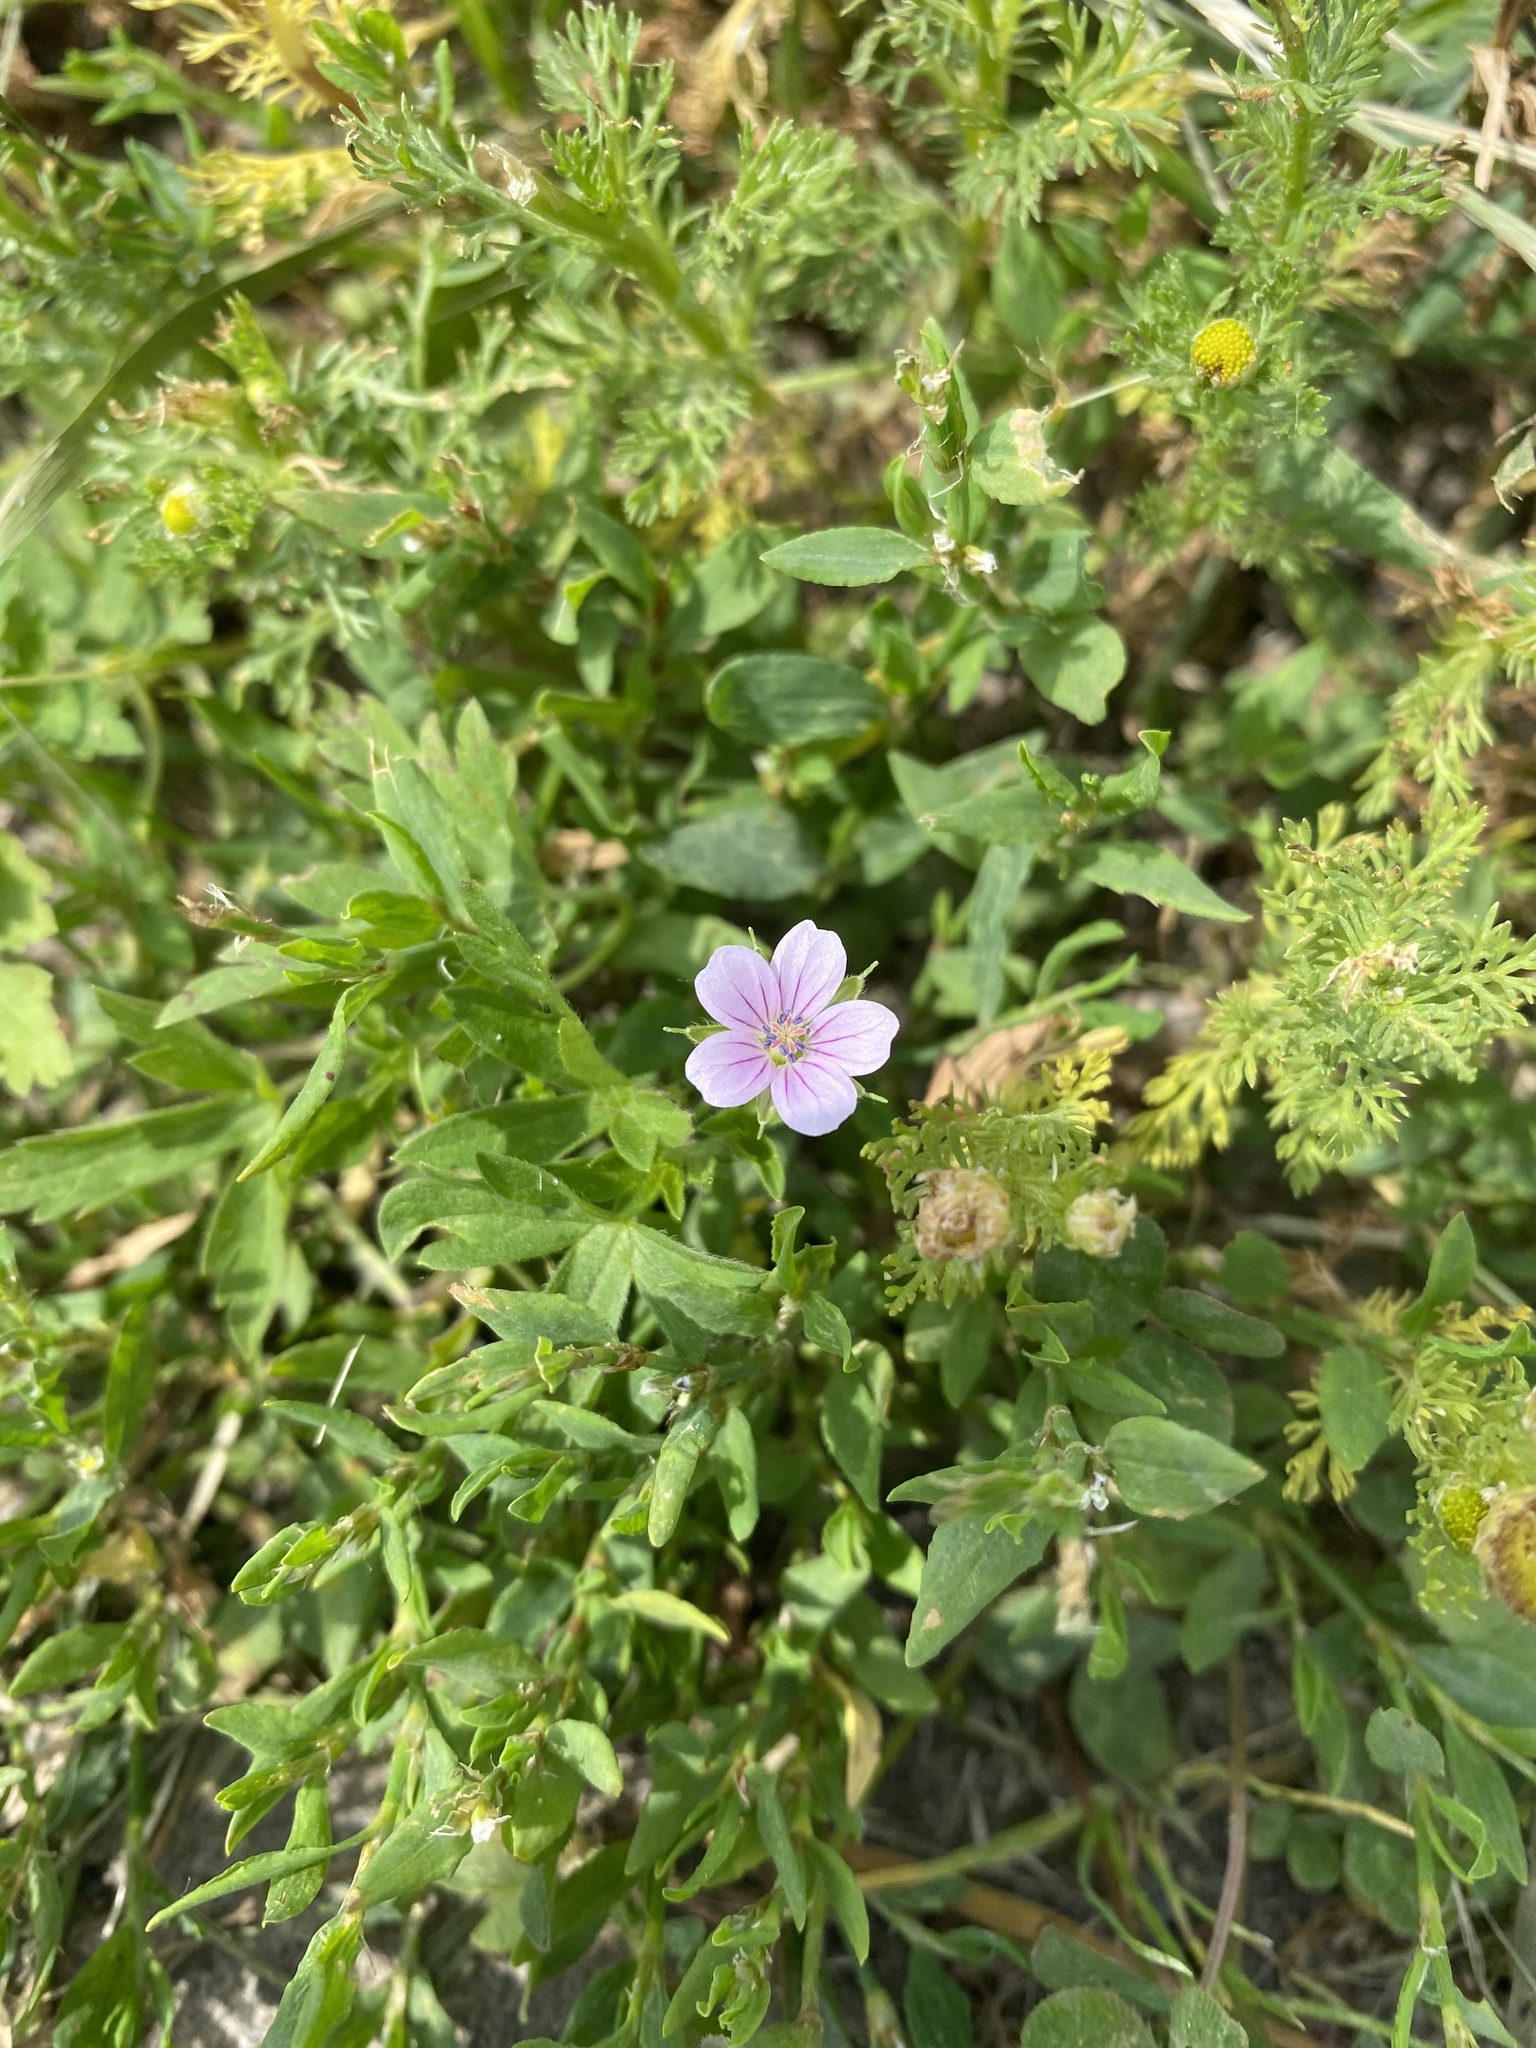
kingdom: Plantae
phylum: Tracheophyta
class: Magnoliopsida
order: Geraniales
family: Geraniaceae
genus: Geranium
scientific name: Geranium sibiricum
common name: Siberian crane's-bill
